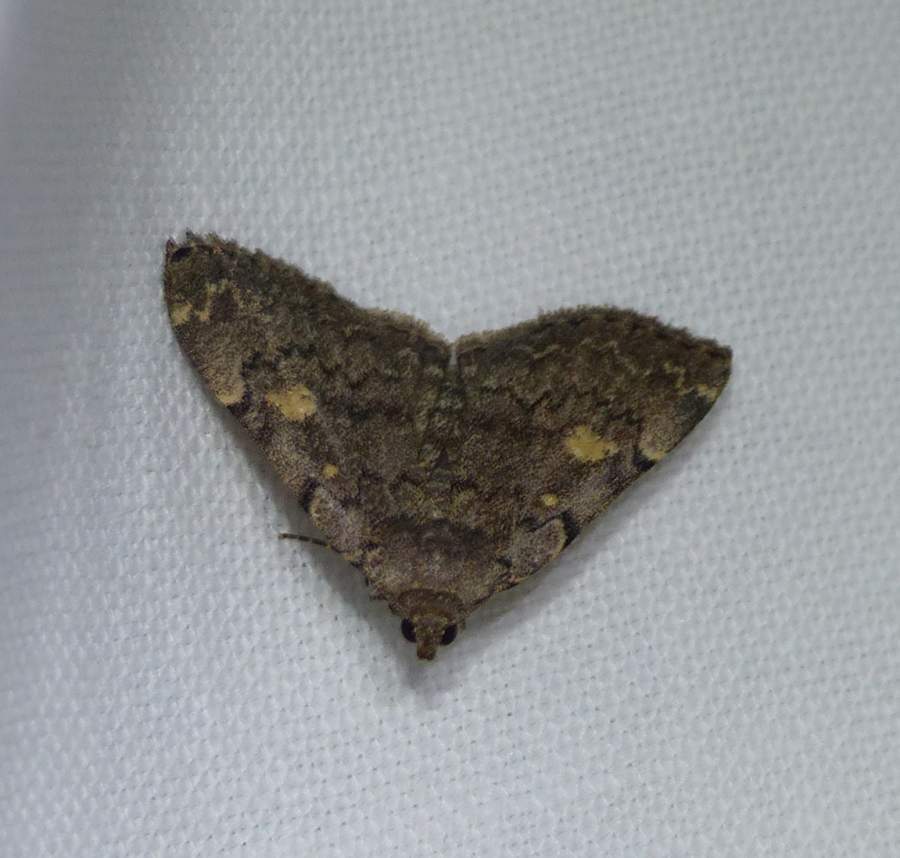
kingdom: Animalia
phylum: Arthropoda
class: Insecta
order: Lepidoptera
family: Erebidae
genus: Idia
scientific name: Idia aemula
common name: Common idia moth
